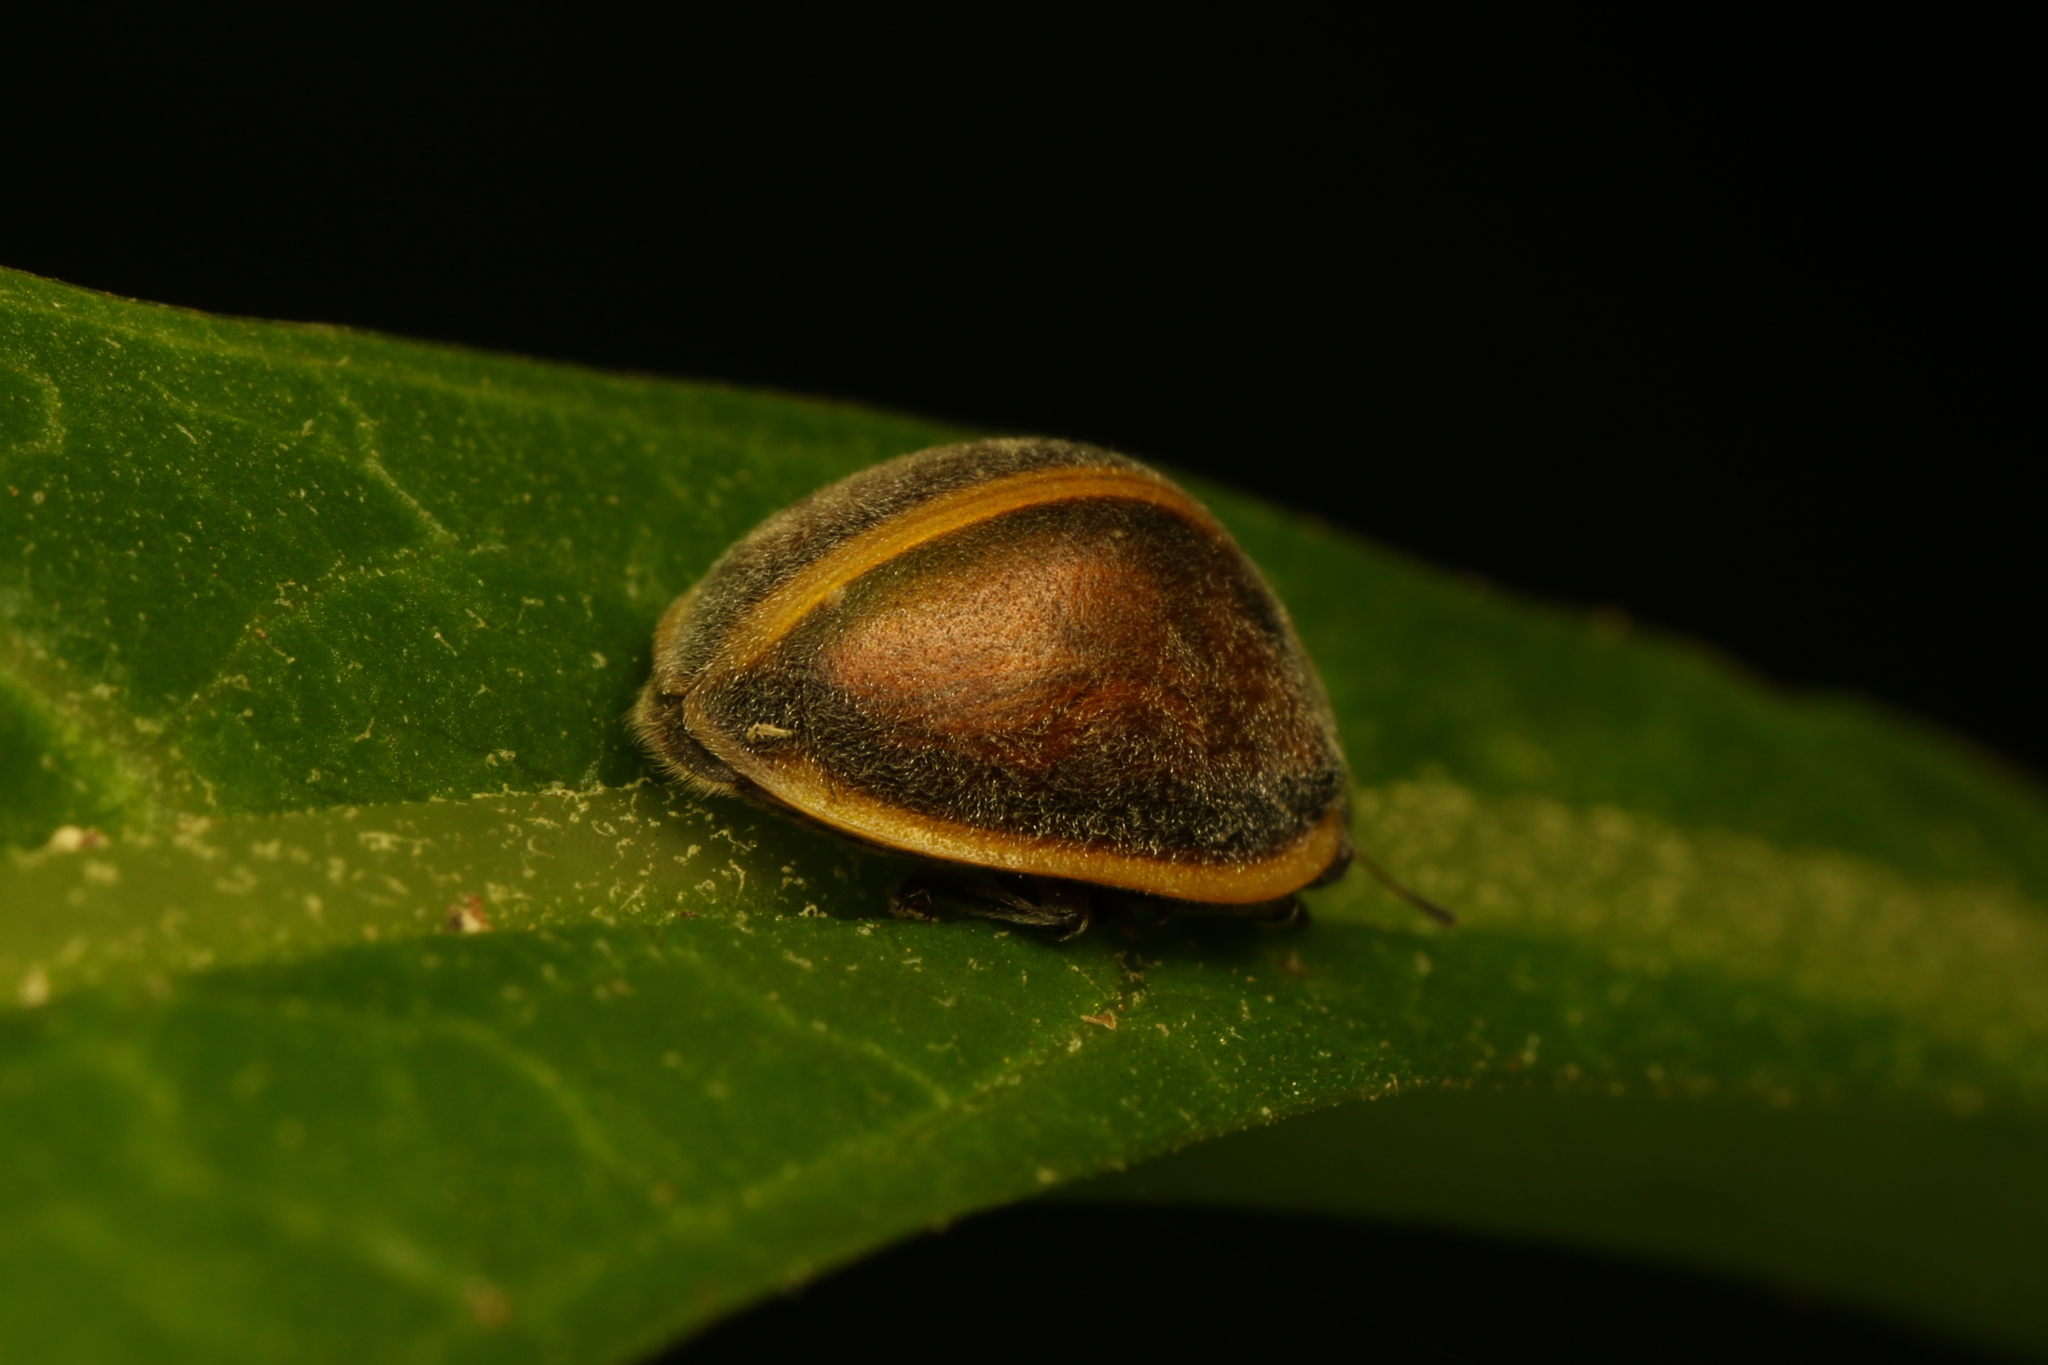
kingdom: Animalia
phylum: Arthropoda
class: Insecta
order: Coleoptera
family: Coccinellidae
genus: Epilachna
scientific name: Epilachna
